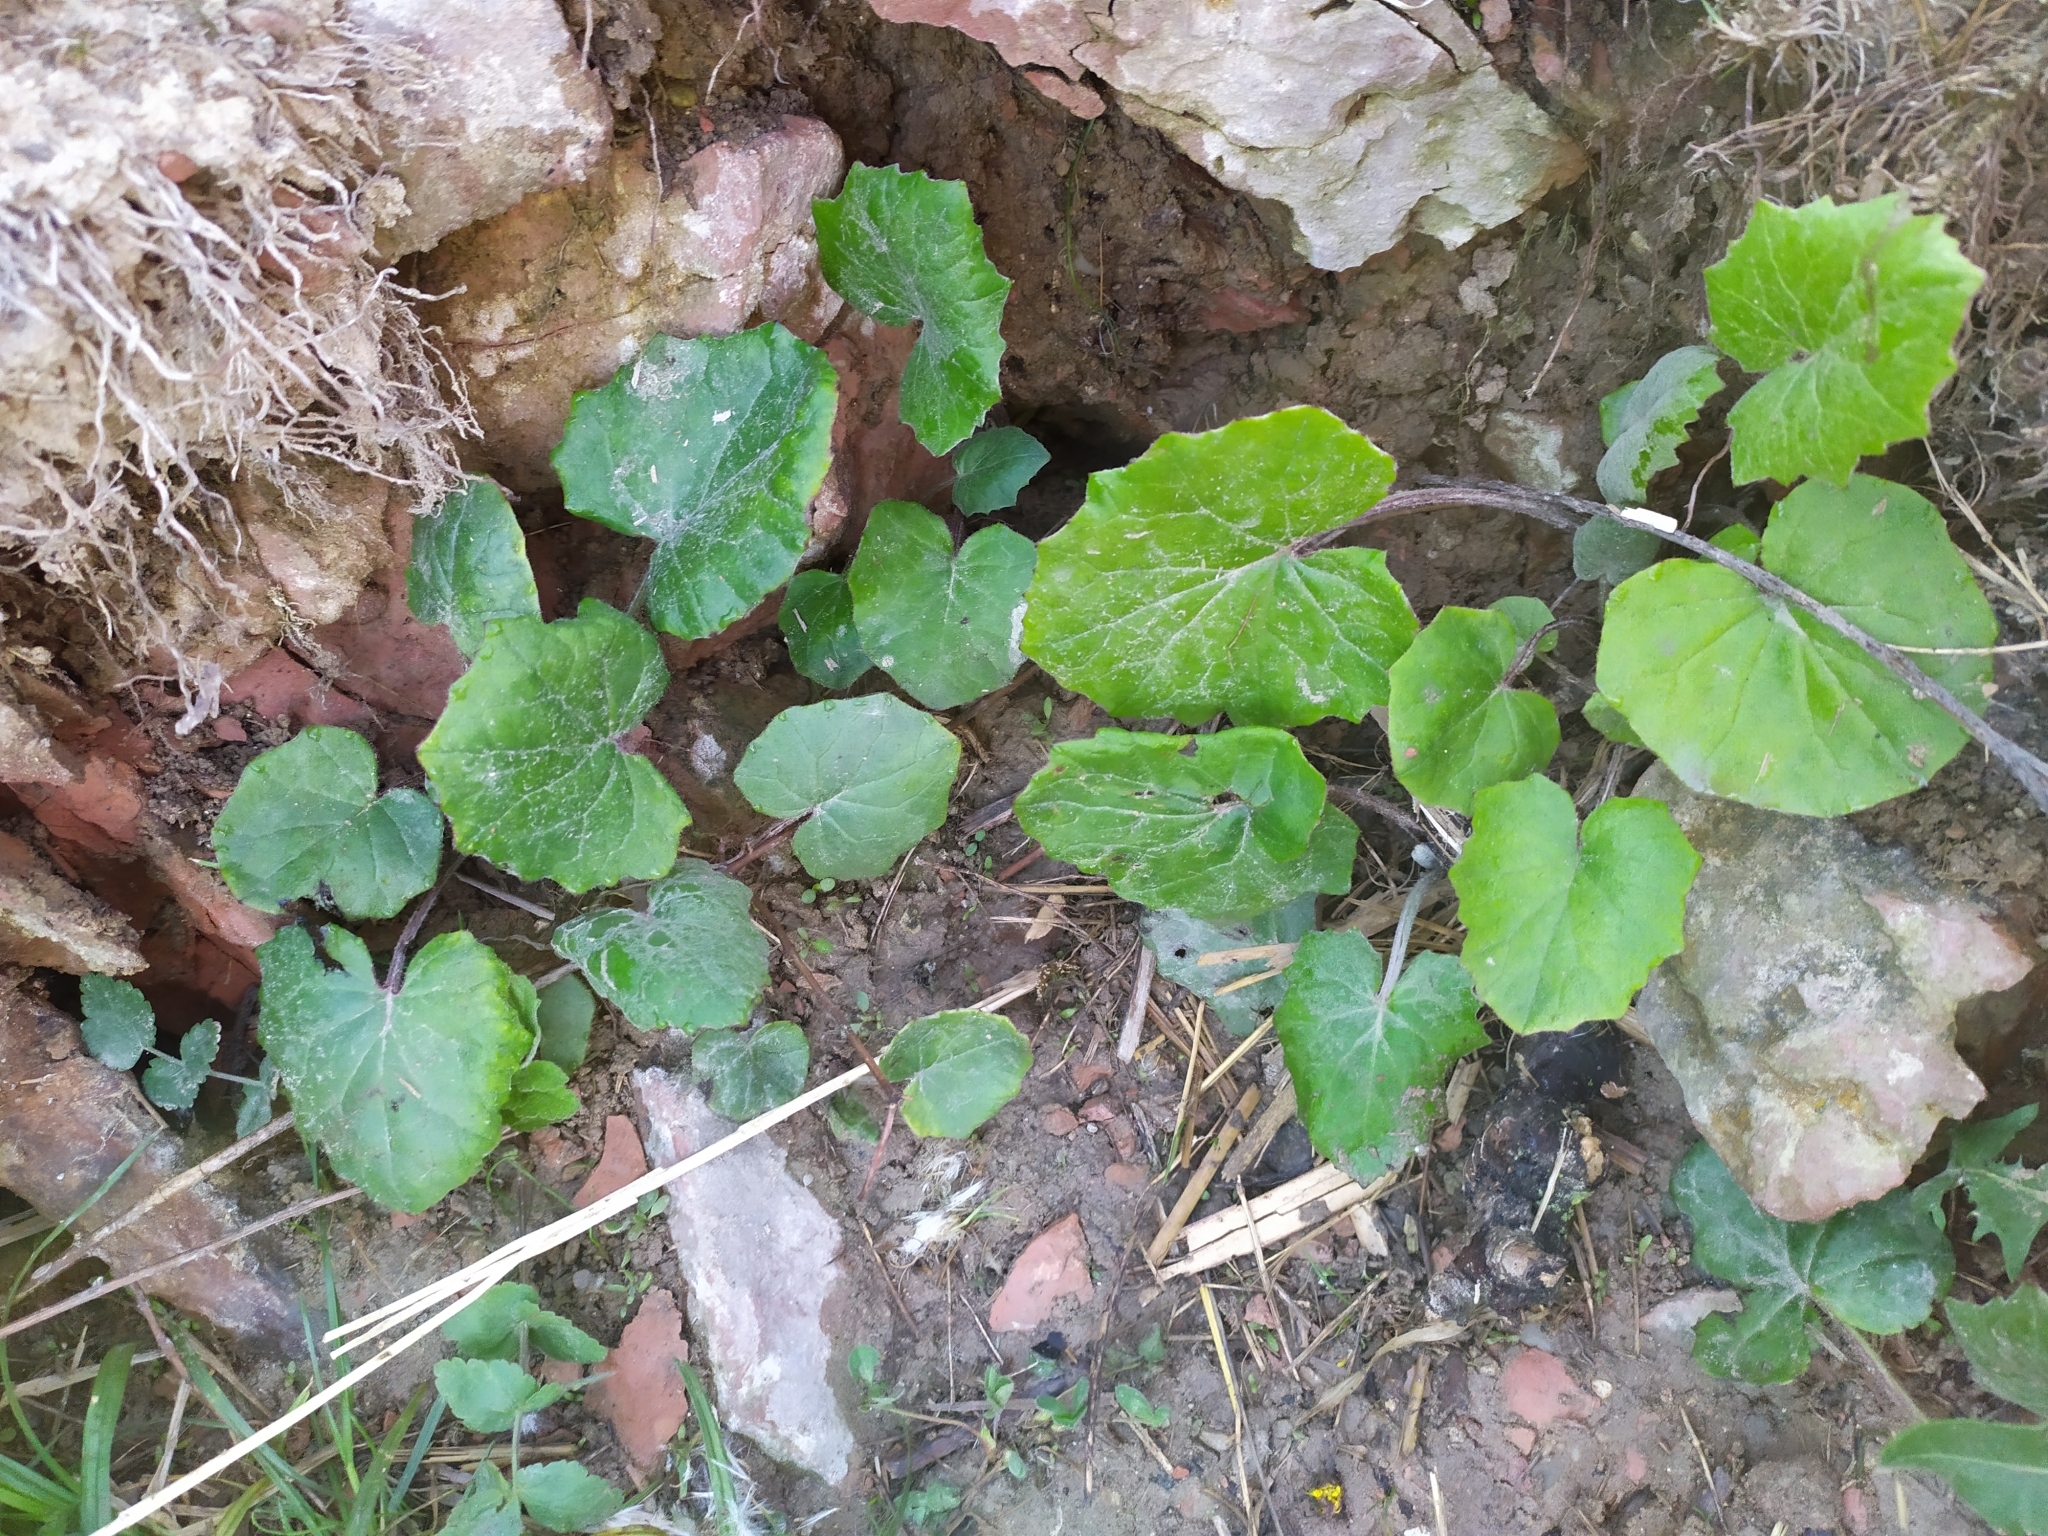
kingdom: Plantae
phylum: Tracheophyta
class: Magnoliopsida
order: Asterales
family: Asteraceae
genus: Tussilago
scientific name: Tussilago farfara
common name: Coltsfoot
